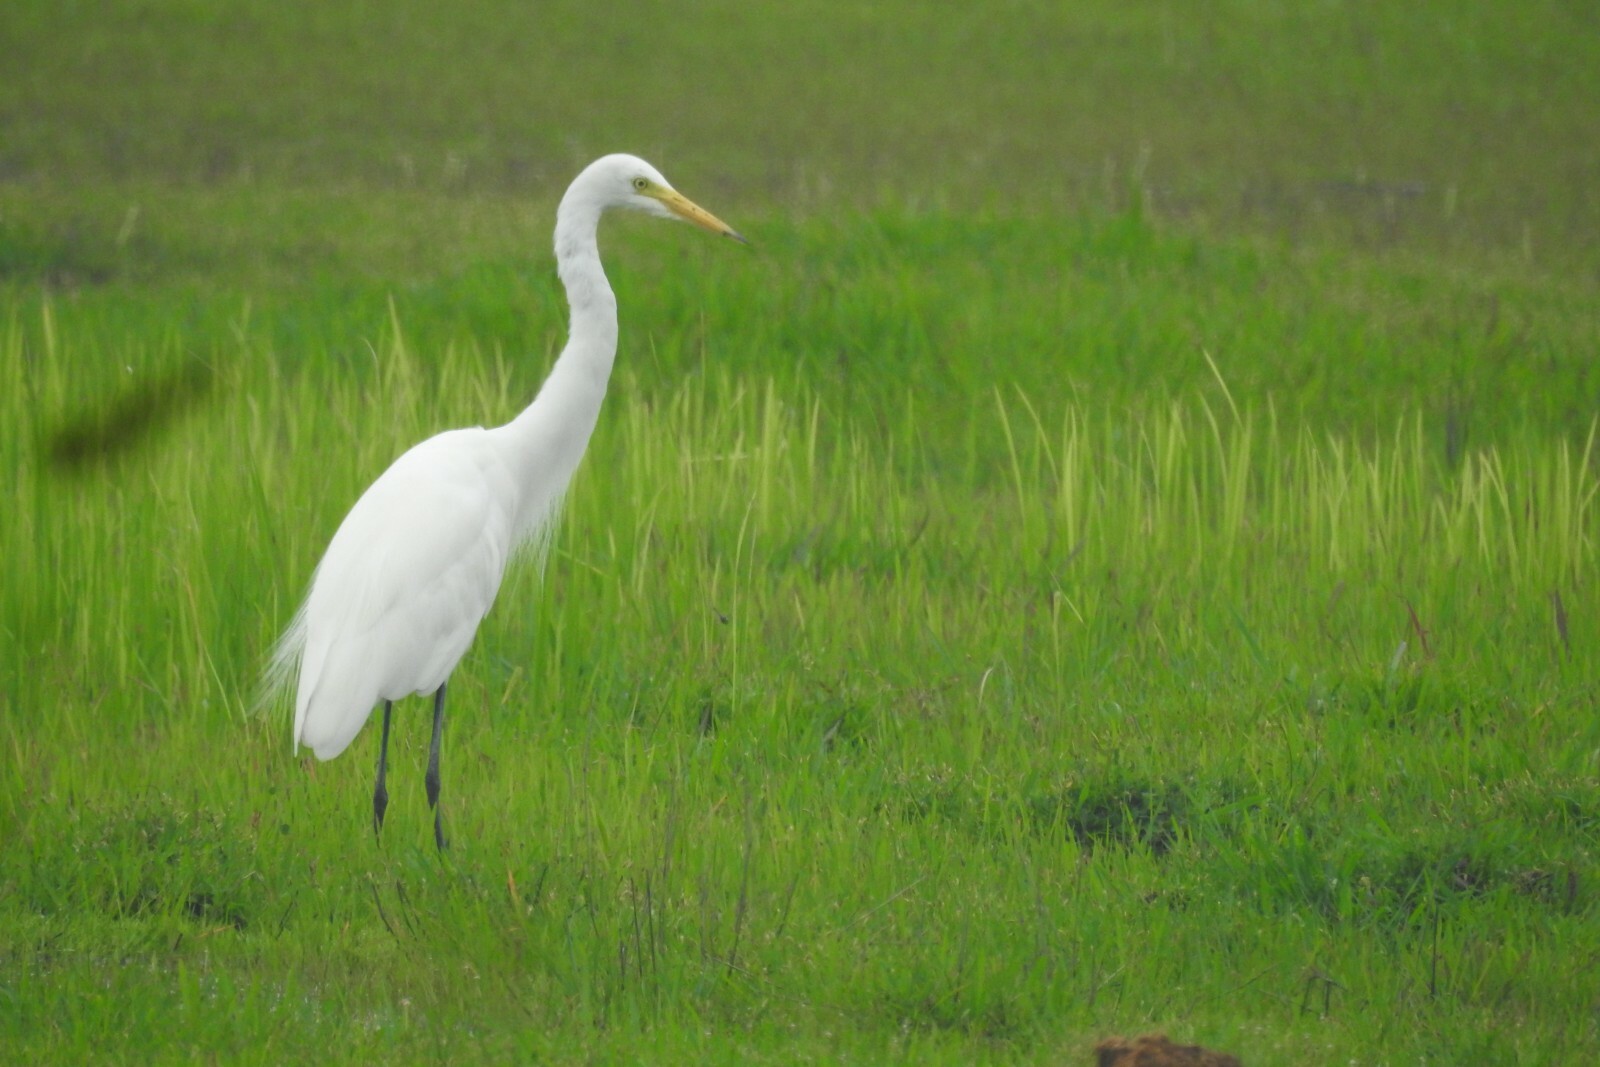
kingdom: Animalia
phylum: Chordata
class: Aves
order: Pelecaniformes
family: Ardeidae
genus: Egretta
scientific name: Egretta intermedia
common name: Intermediate egret
